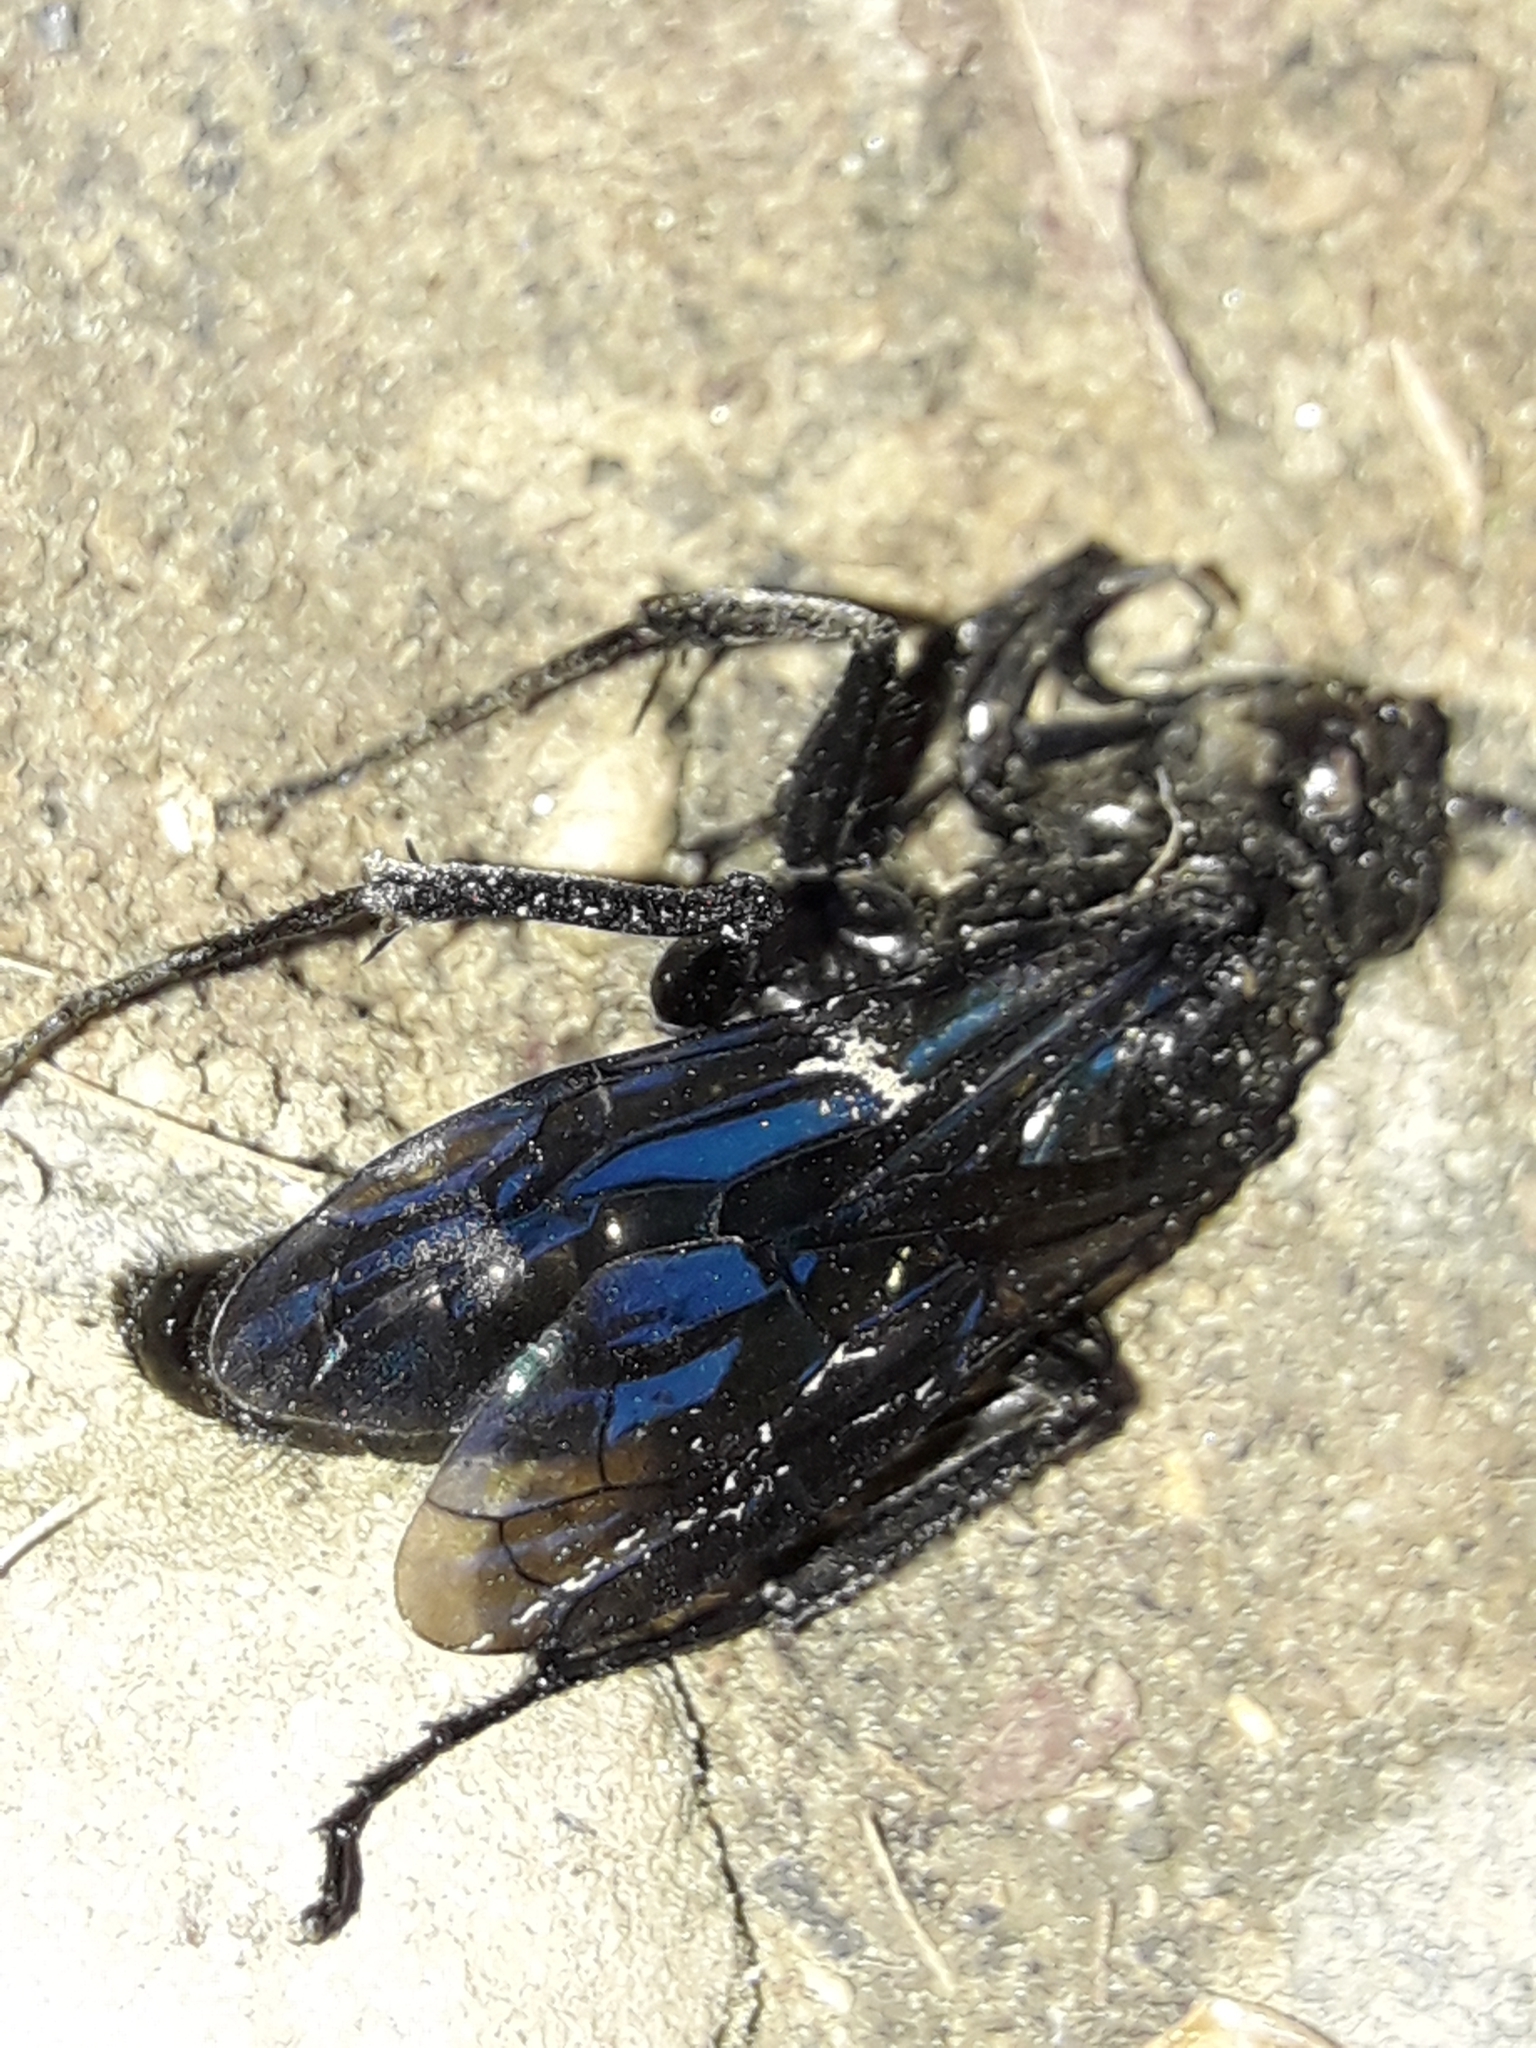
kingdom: Animalia
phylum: Arthropoda
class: Insecta
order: Hymenoptera
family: Pompilidae
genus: Priocnemis
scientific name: Priocnemis monachus
